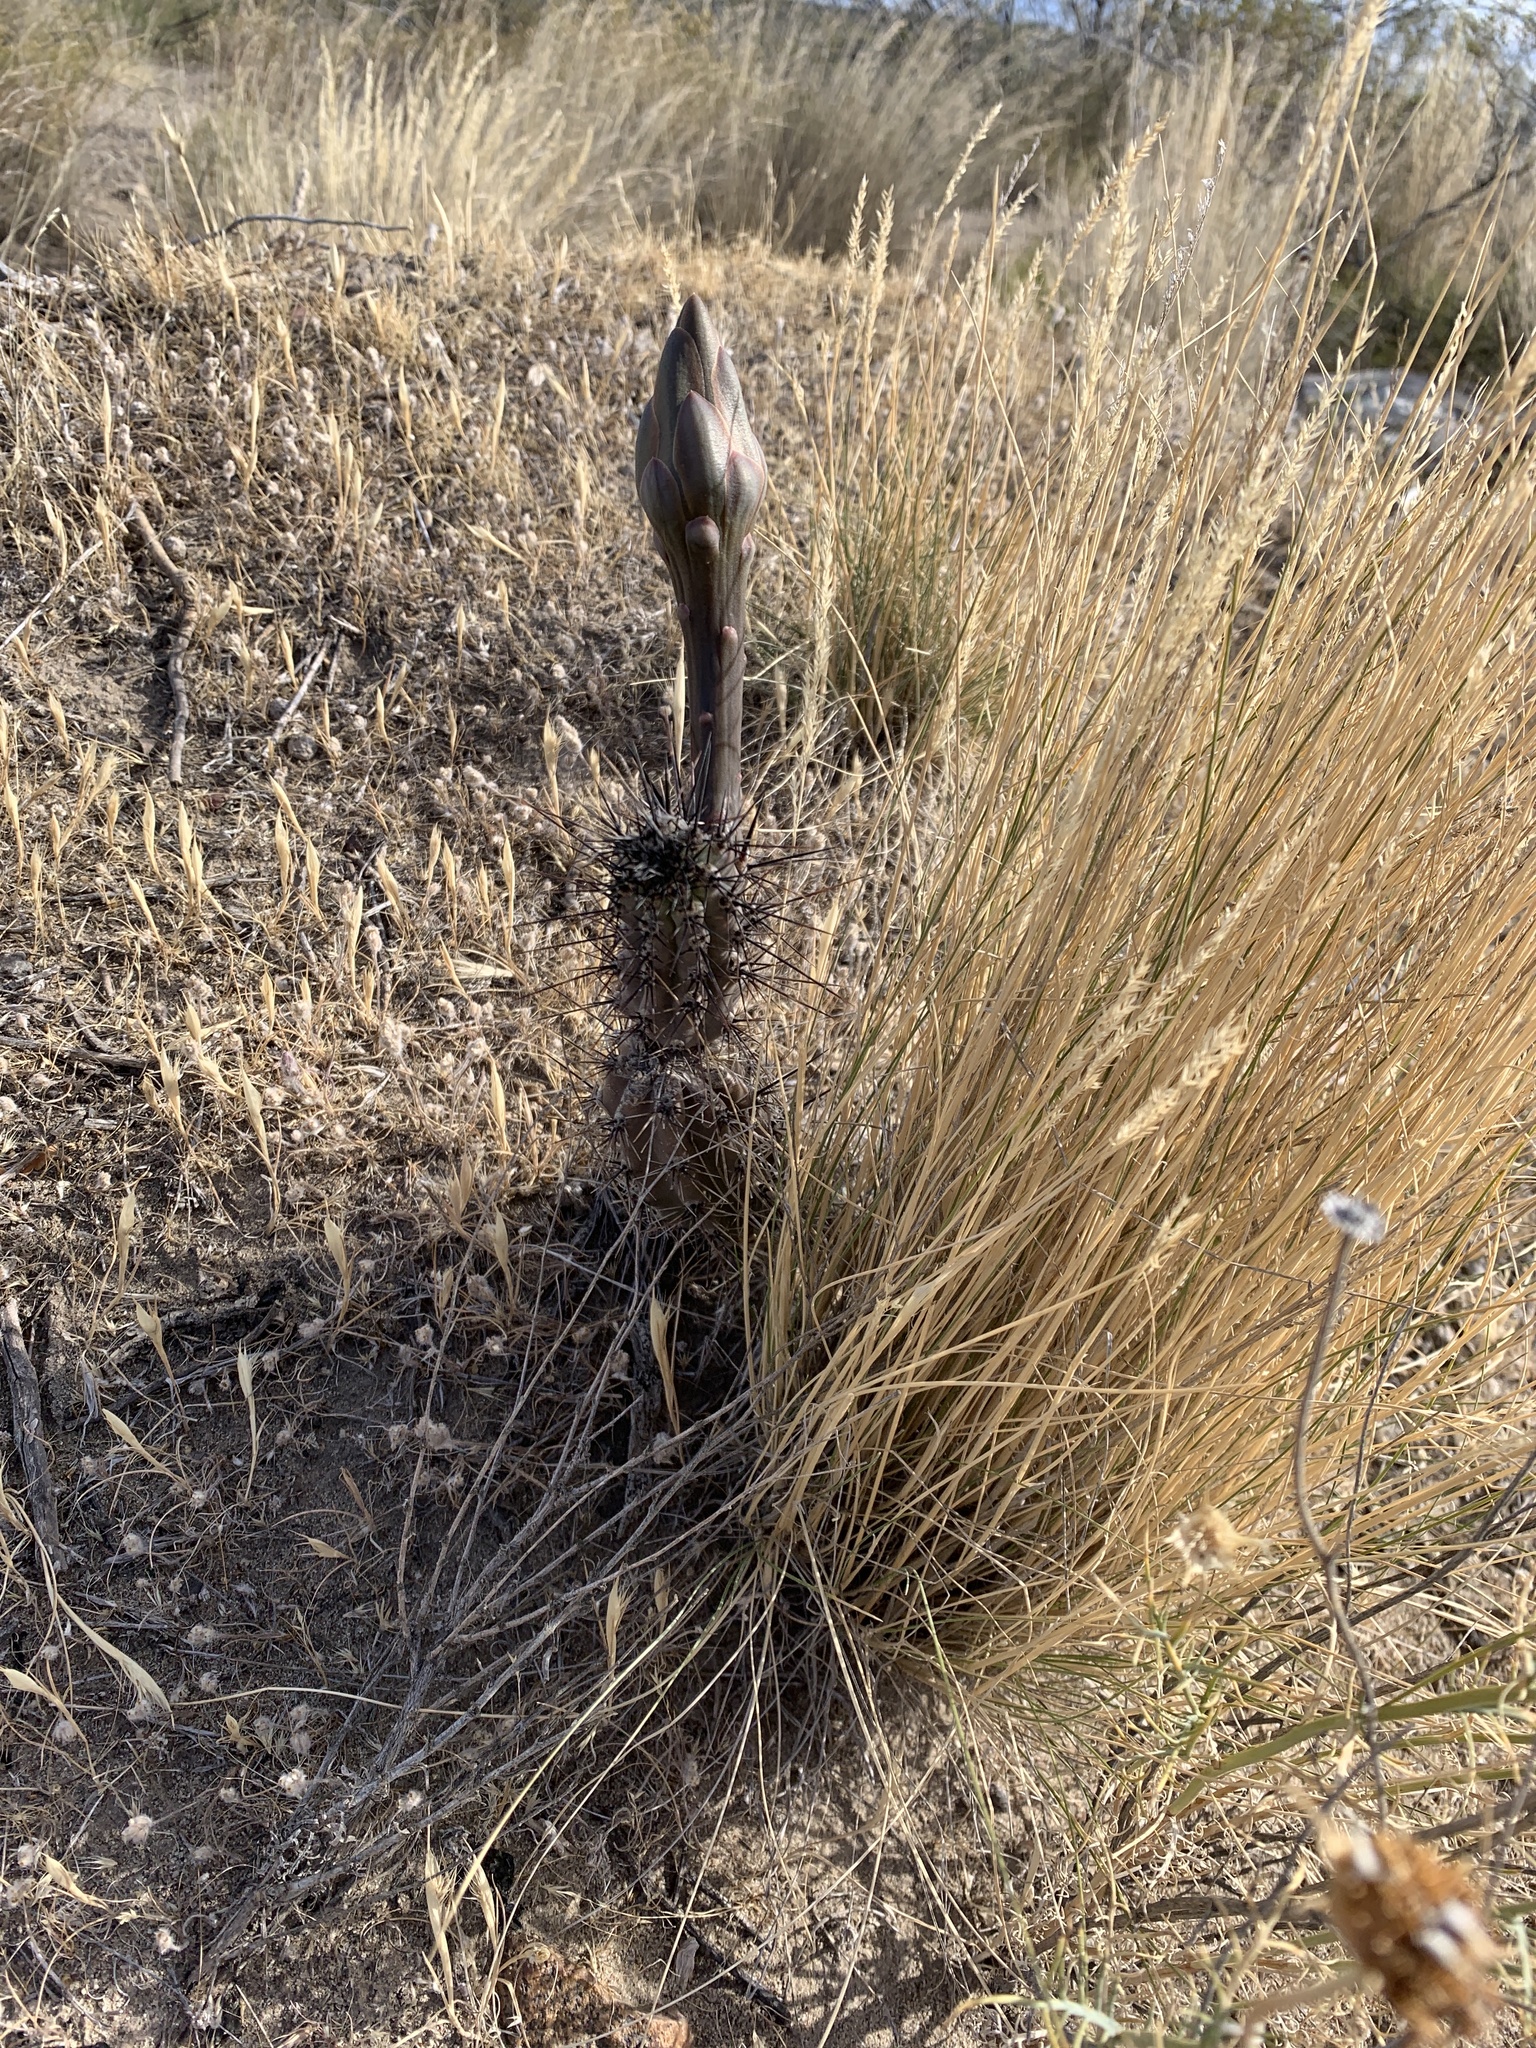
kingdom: Plantae
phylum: Tracheophyta
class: Magnoliopsida
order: Caryophyllales
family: Cactaceae
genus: Cereus
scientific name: Cereus aethiops
